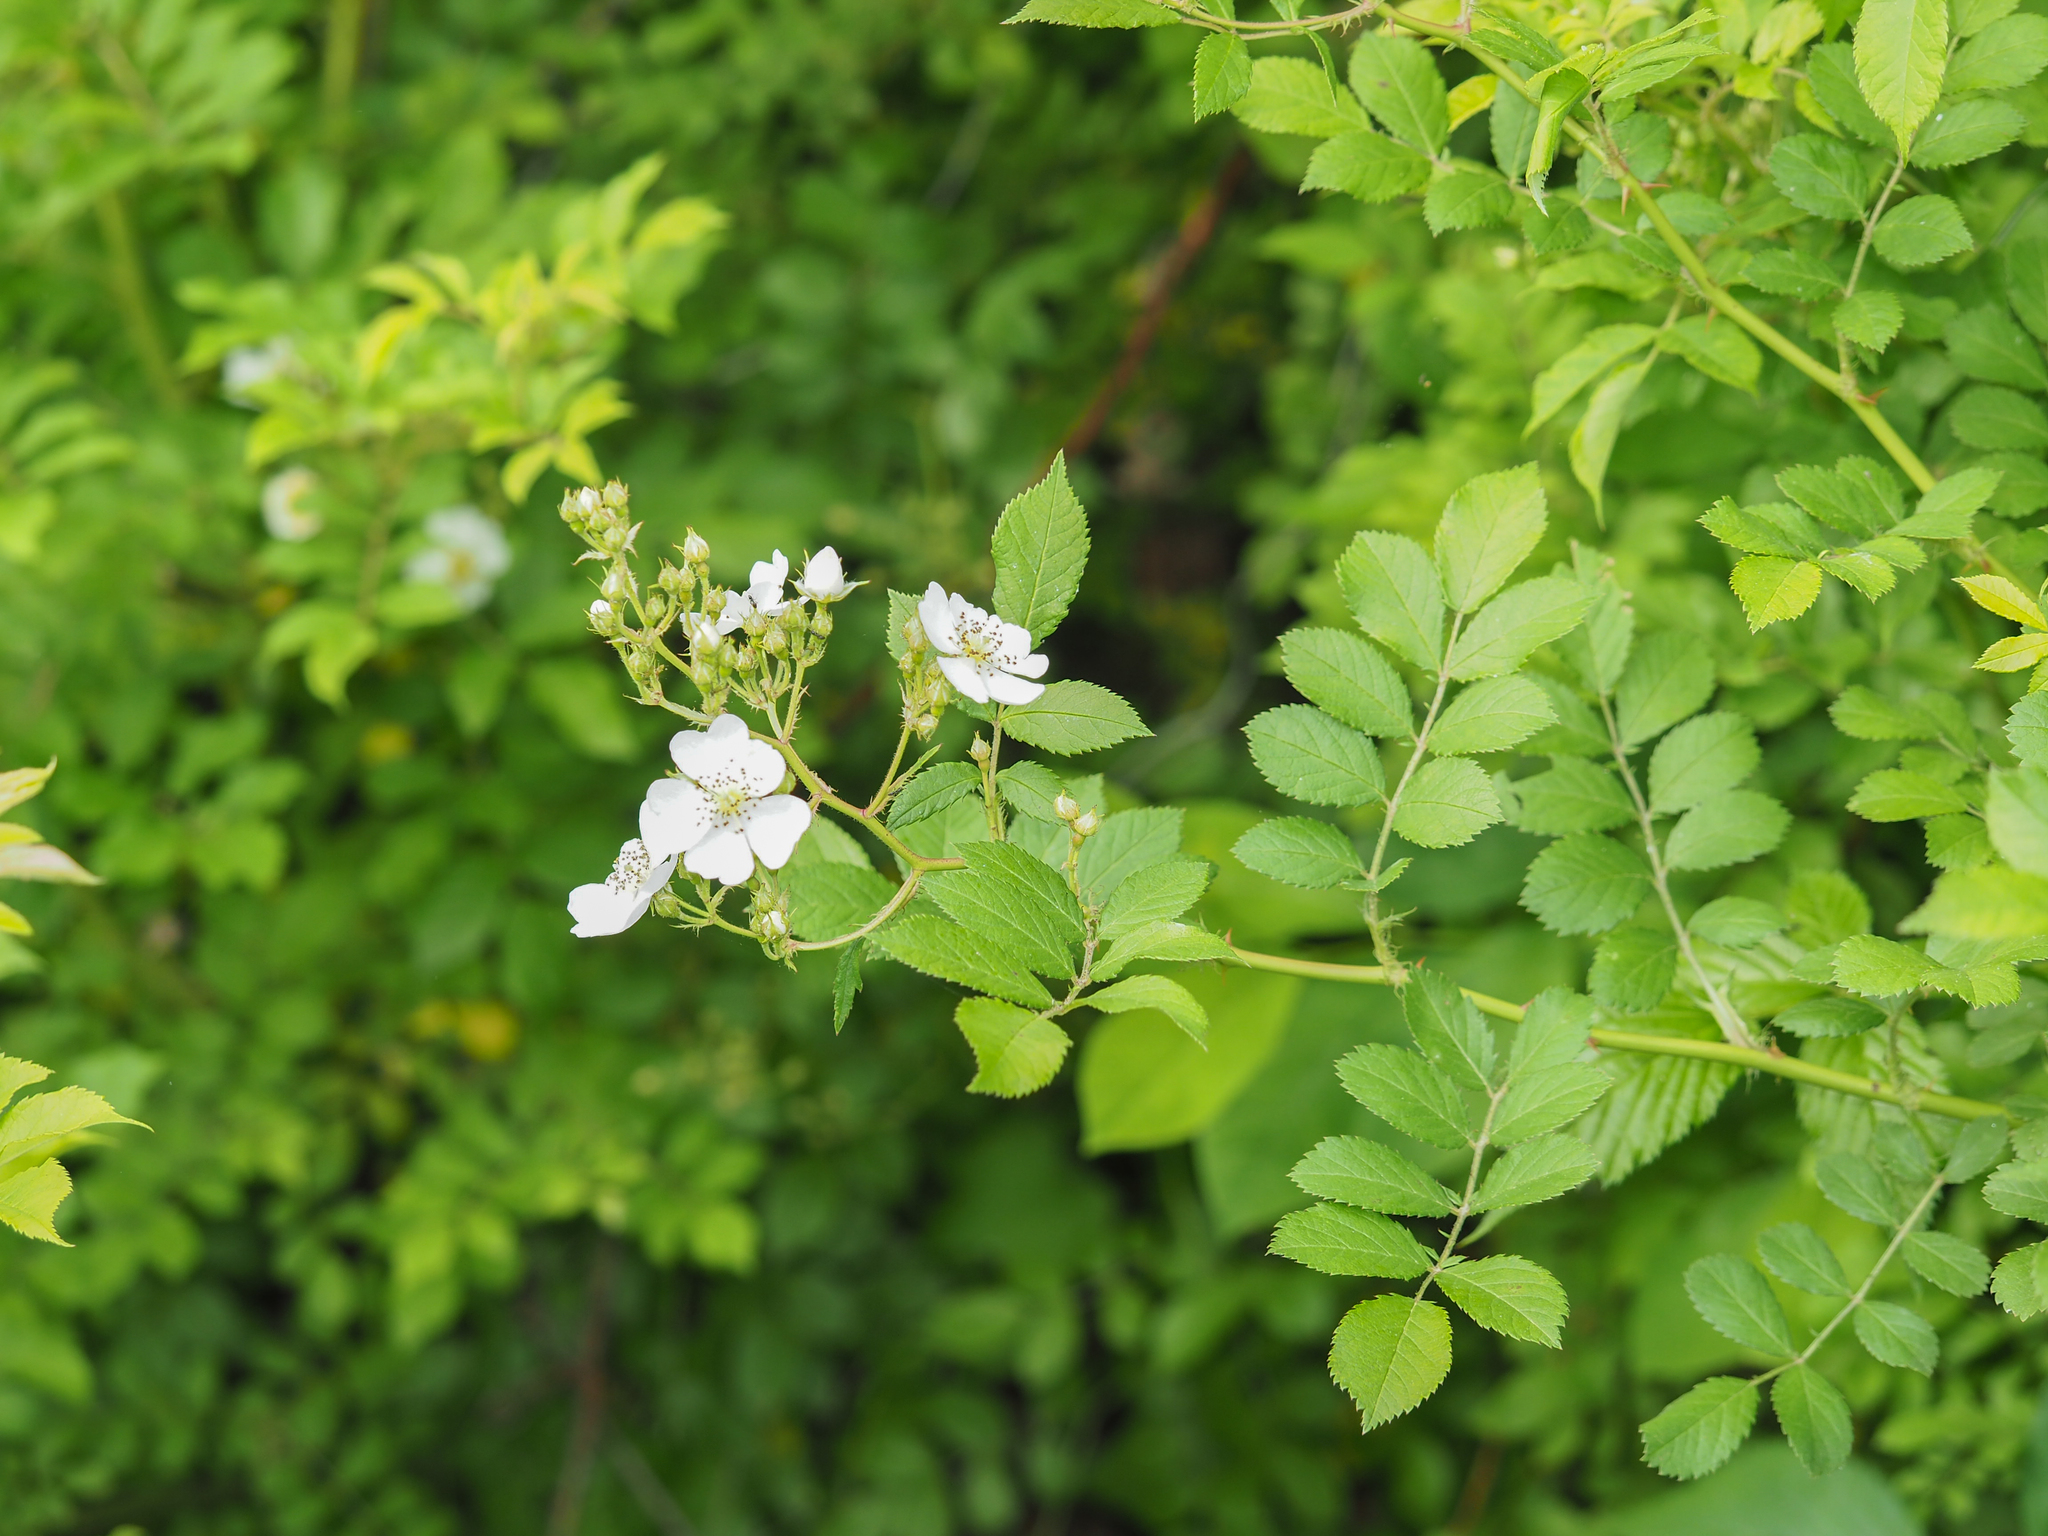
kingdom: Plantae
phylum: Tracheophyta
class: Magnoliopsida
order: Rosales
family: Rosaceae
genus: Rosa
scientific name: Rosa multiflora
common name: Multiflora rose
